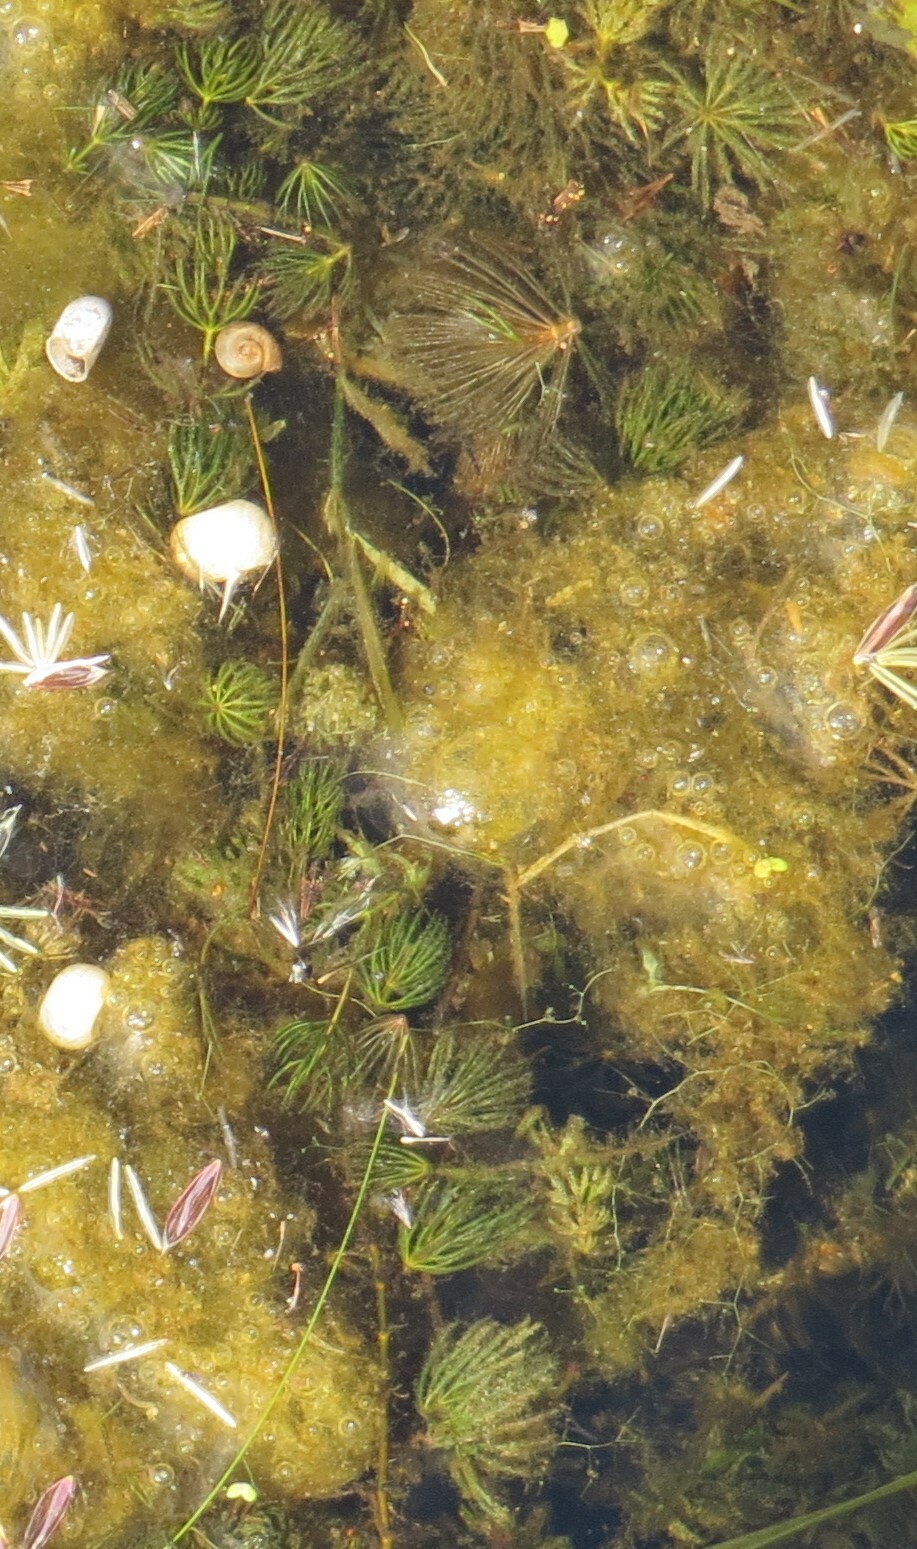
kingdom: Plantae
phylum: Tracheophyta
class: Magnoliopsida
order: Ceratophyllales
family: Ceratophyllaceae
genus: Ceratophyllum
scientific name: Ceratophyllum demersum
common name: Rigid hornwort
